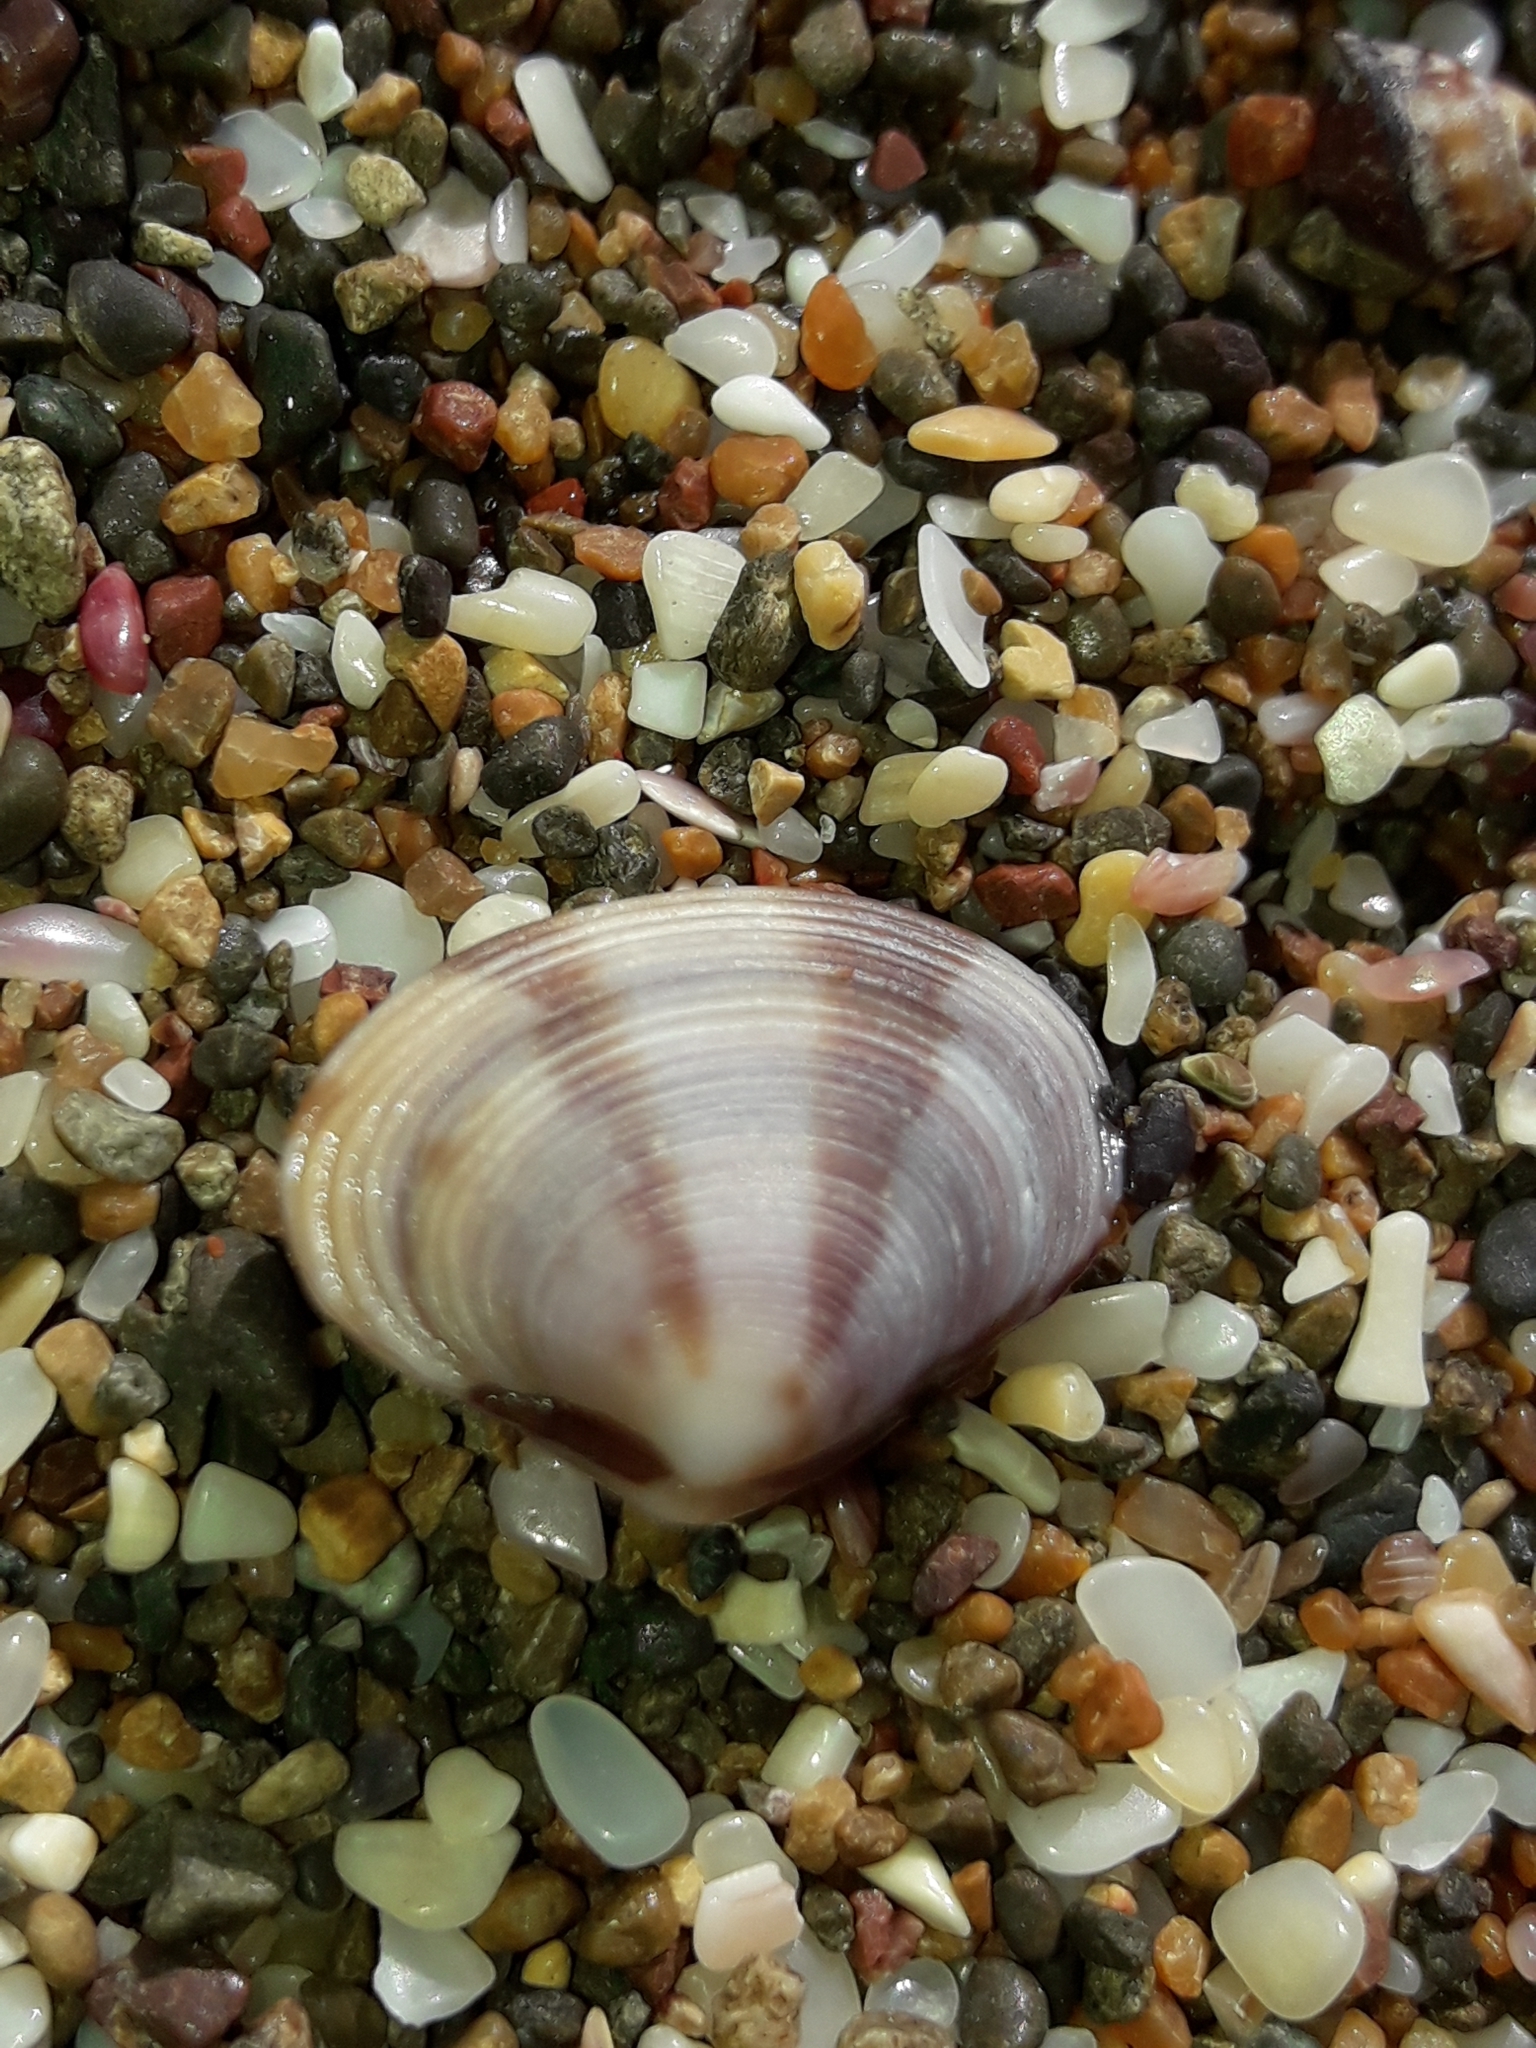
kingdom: Animalia
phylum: Mollusca
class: Bivalvia
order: Venerida
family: Veneridae
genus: Tawera
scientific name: Tawera spissa
